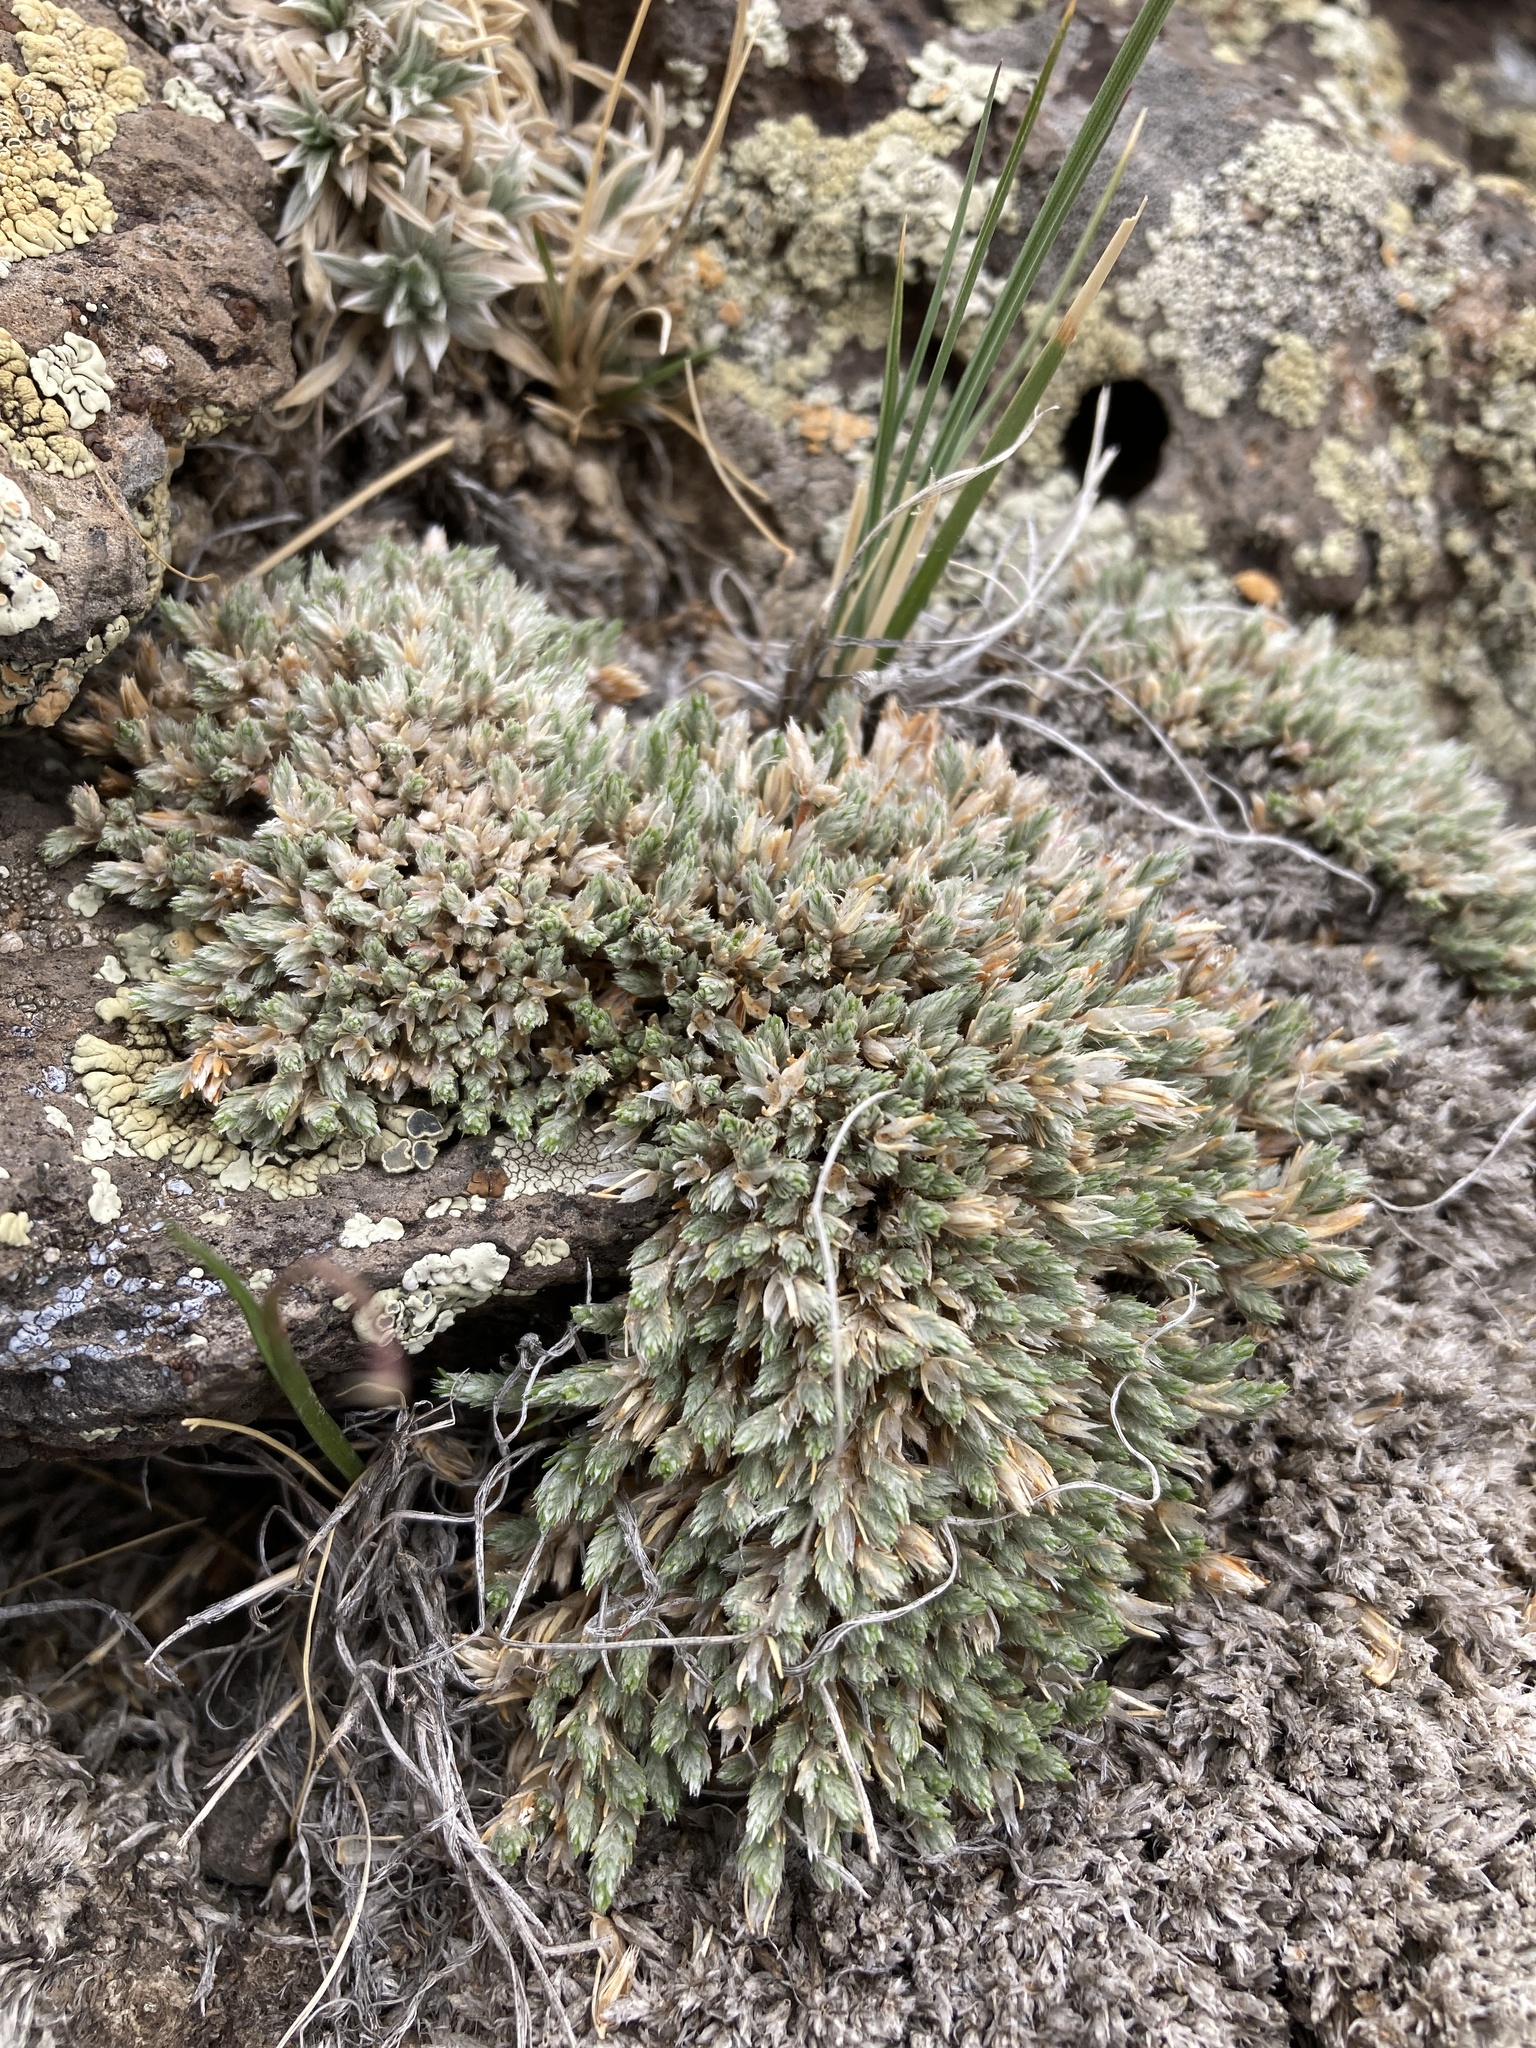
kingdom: Plantae
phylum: Tracheophyta
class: Magnoliopsida
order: Caryophyllales
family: Caryophyllaceae
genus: Paronychia
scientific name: Paronychia sessiliflora
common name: Creeping nailwort
